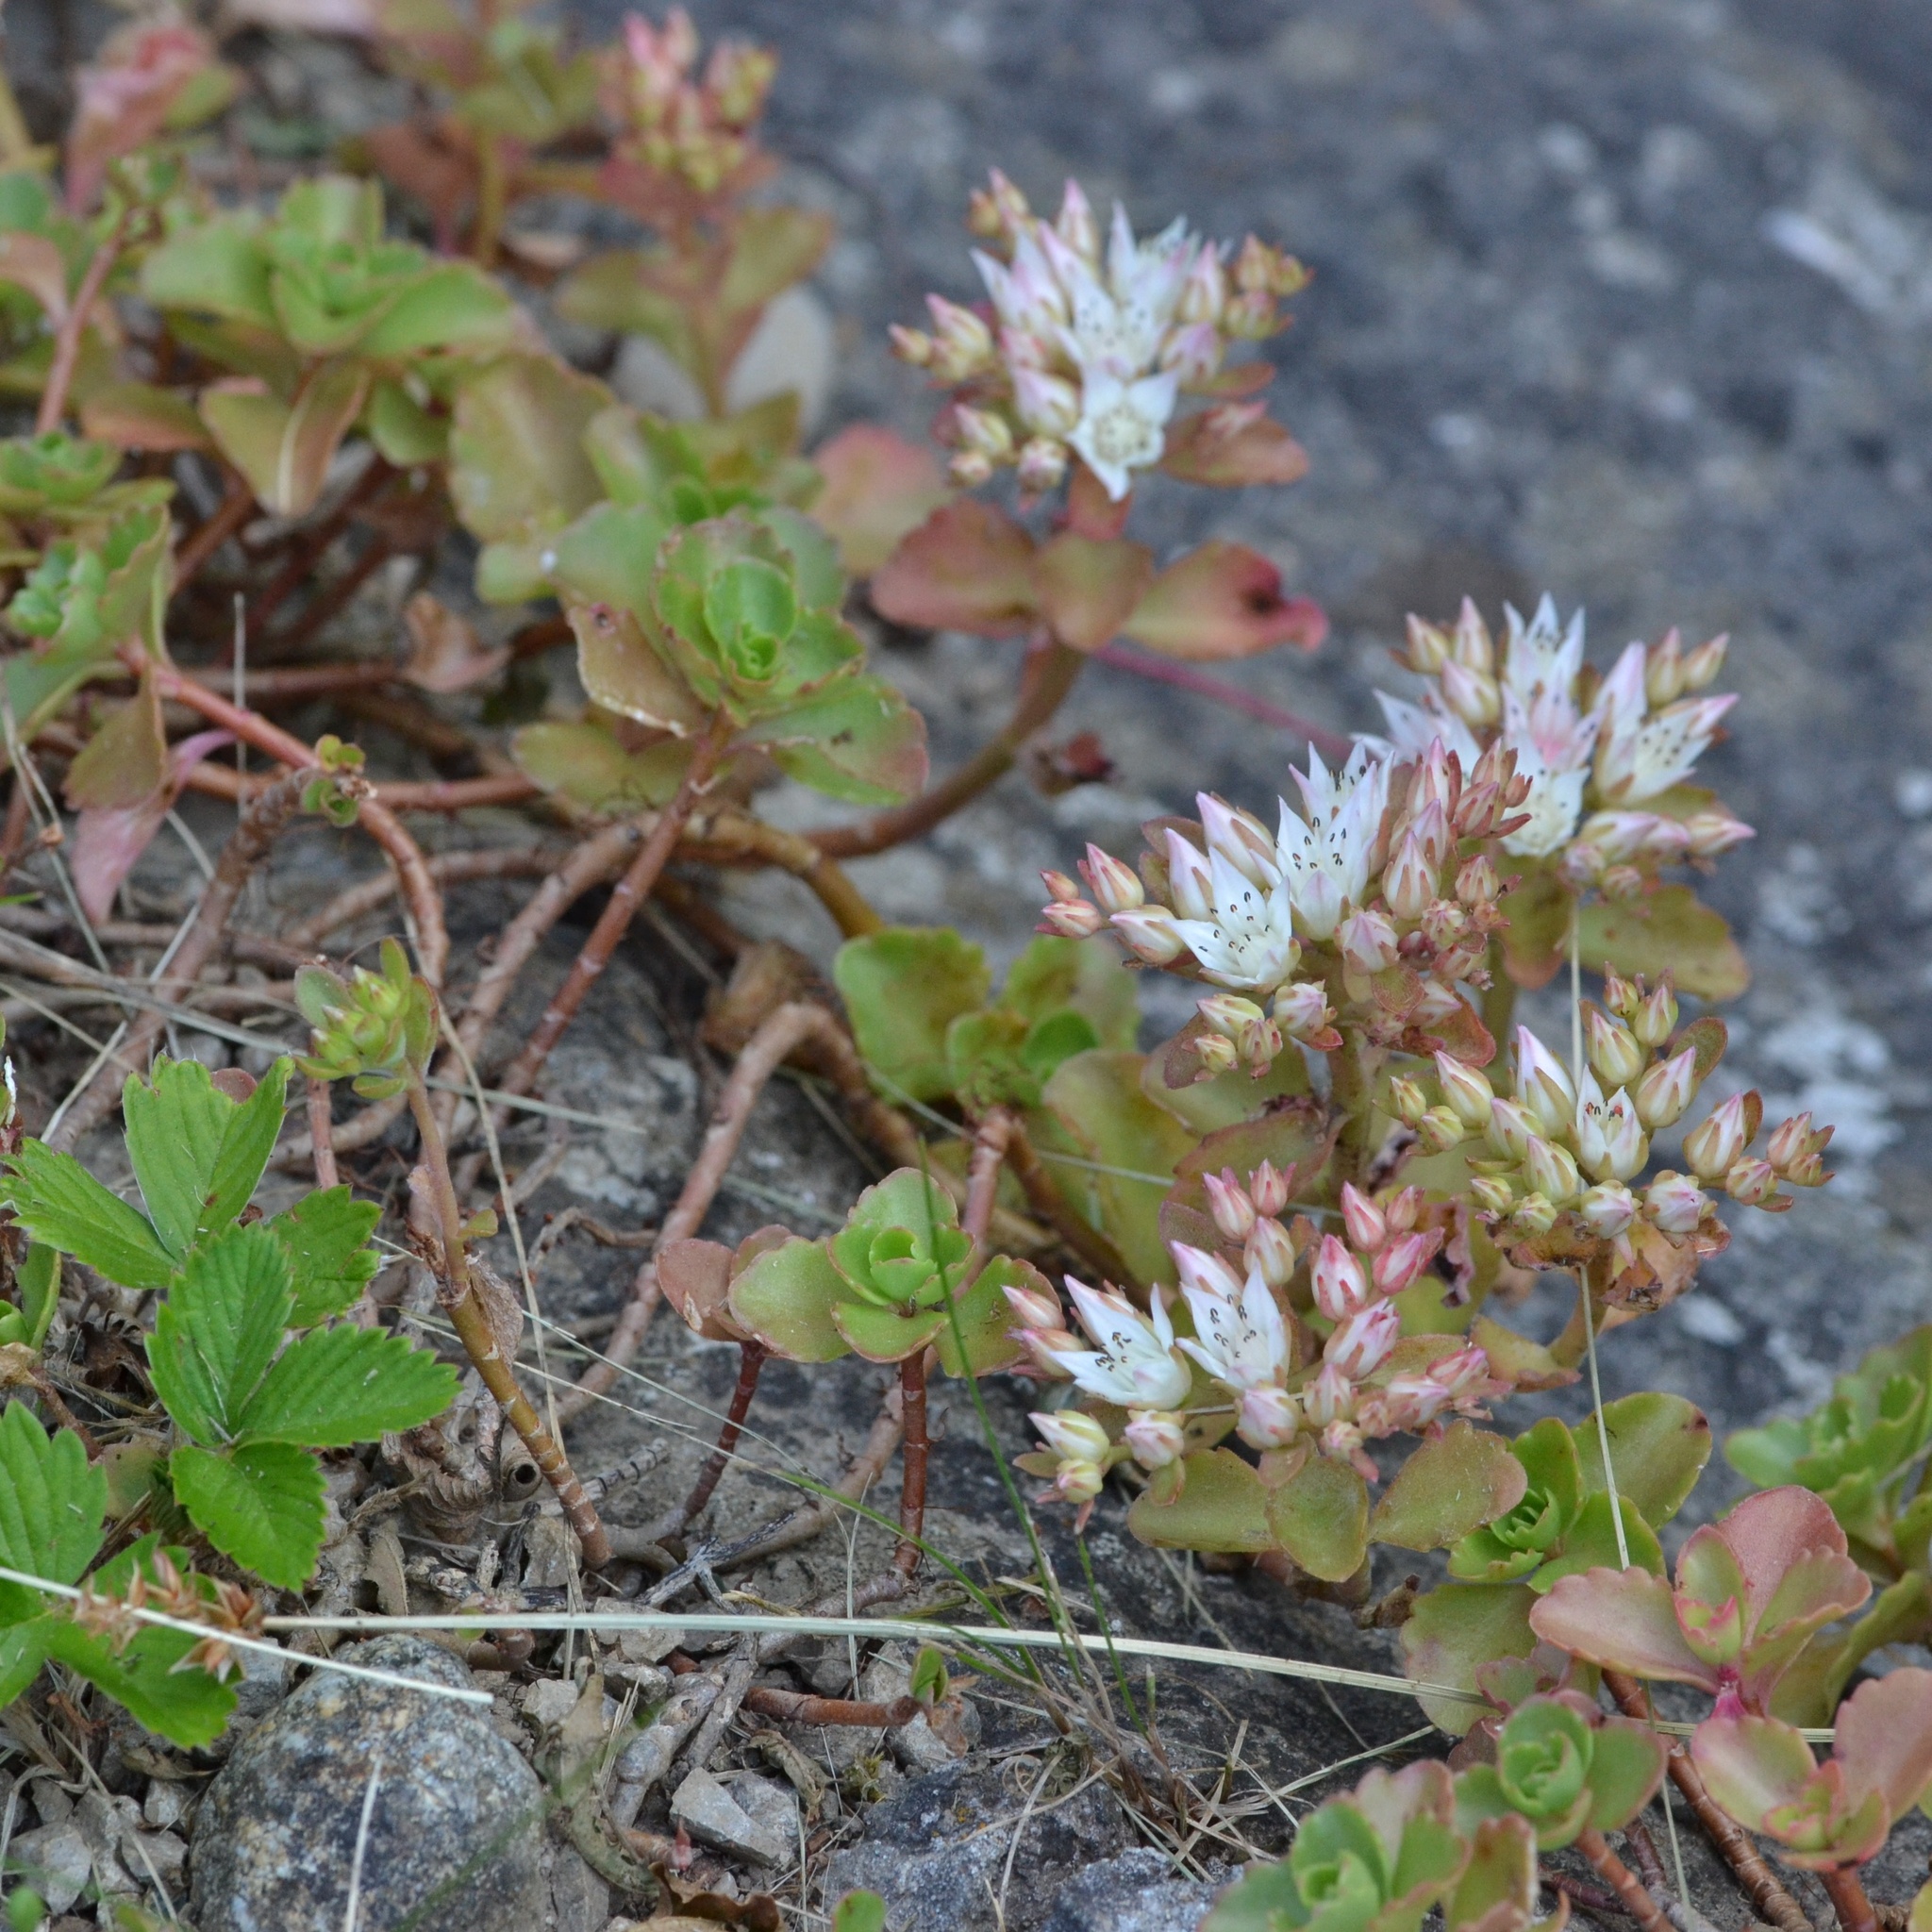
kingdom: Plantae
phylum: Tracheophyta
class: Magnoliopsida
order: Saxifragales
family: Crassulaceae
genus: Phedimus
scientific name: Phedimus spurius
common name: Caucasian stonecrop
